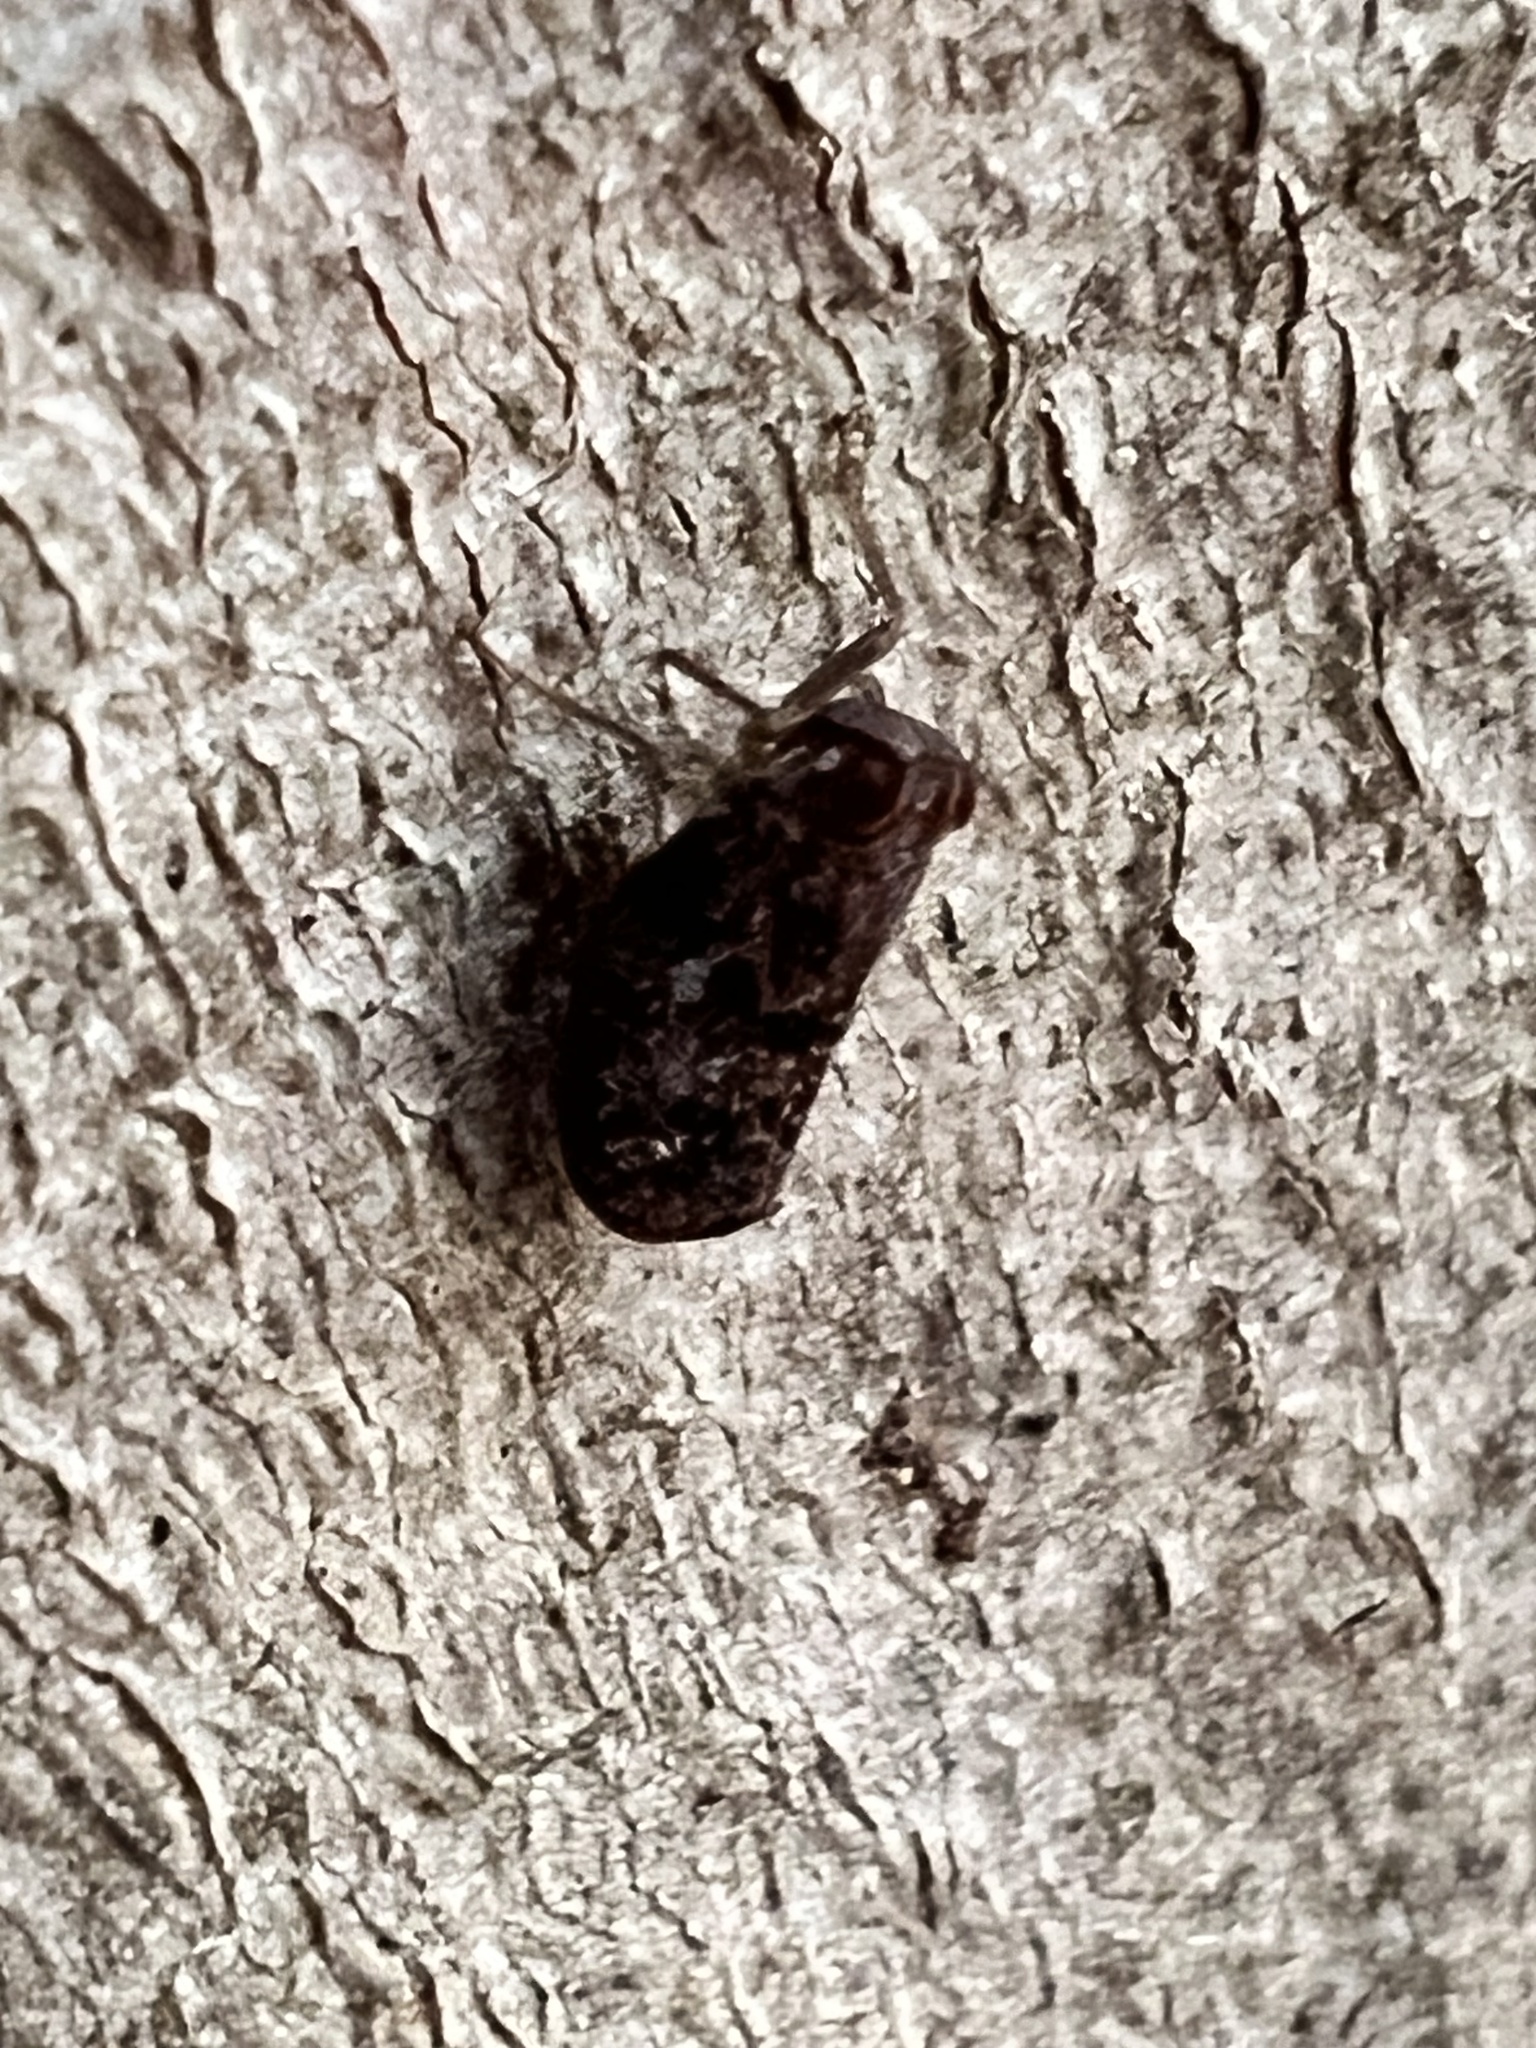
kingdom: Animalia
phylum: Arthropoda
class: Insecta
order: Hemiptera
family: Issidae
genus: Thionia
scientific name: Thionia bullata
